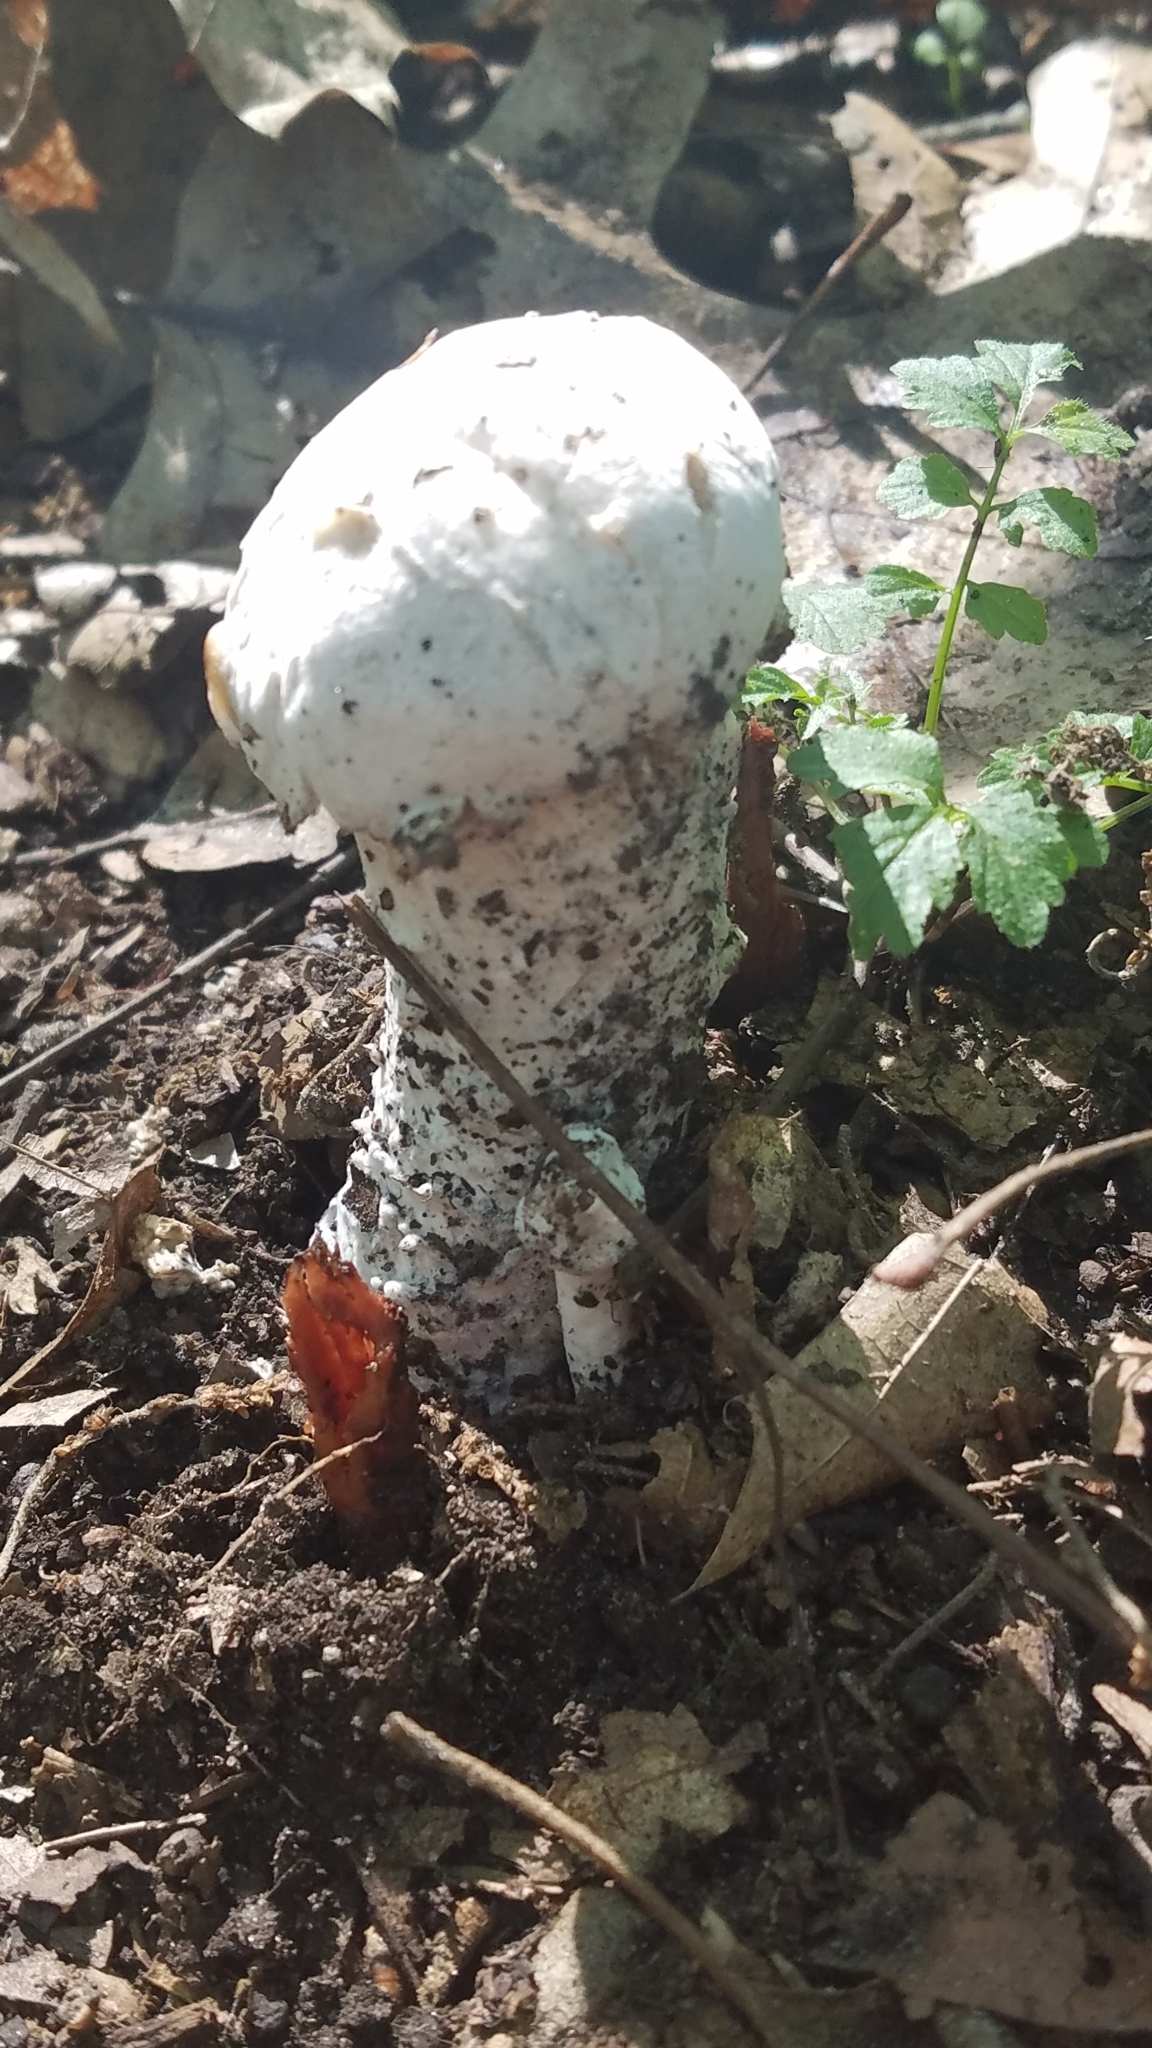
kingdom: Fungi
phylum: Ascomycota
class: Sordariomycetes
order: Hypocreales
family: Hypocreaceae
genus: Hypomyces
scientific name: Hypomyces hyalinus
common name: Amanita mold
